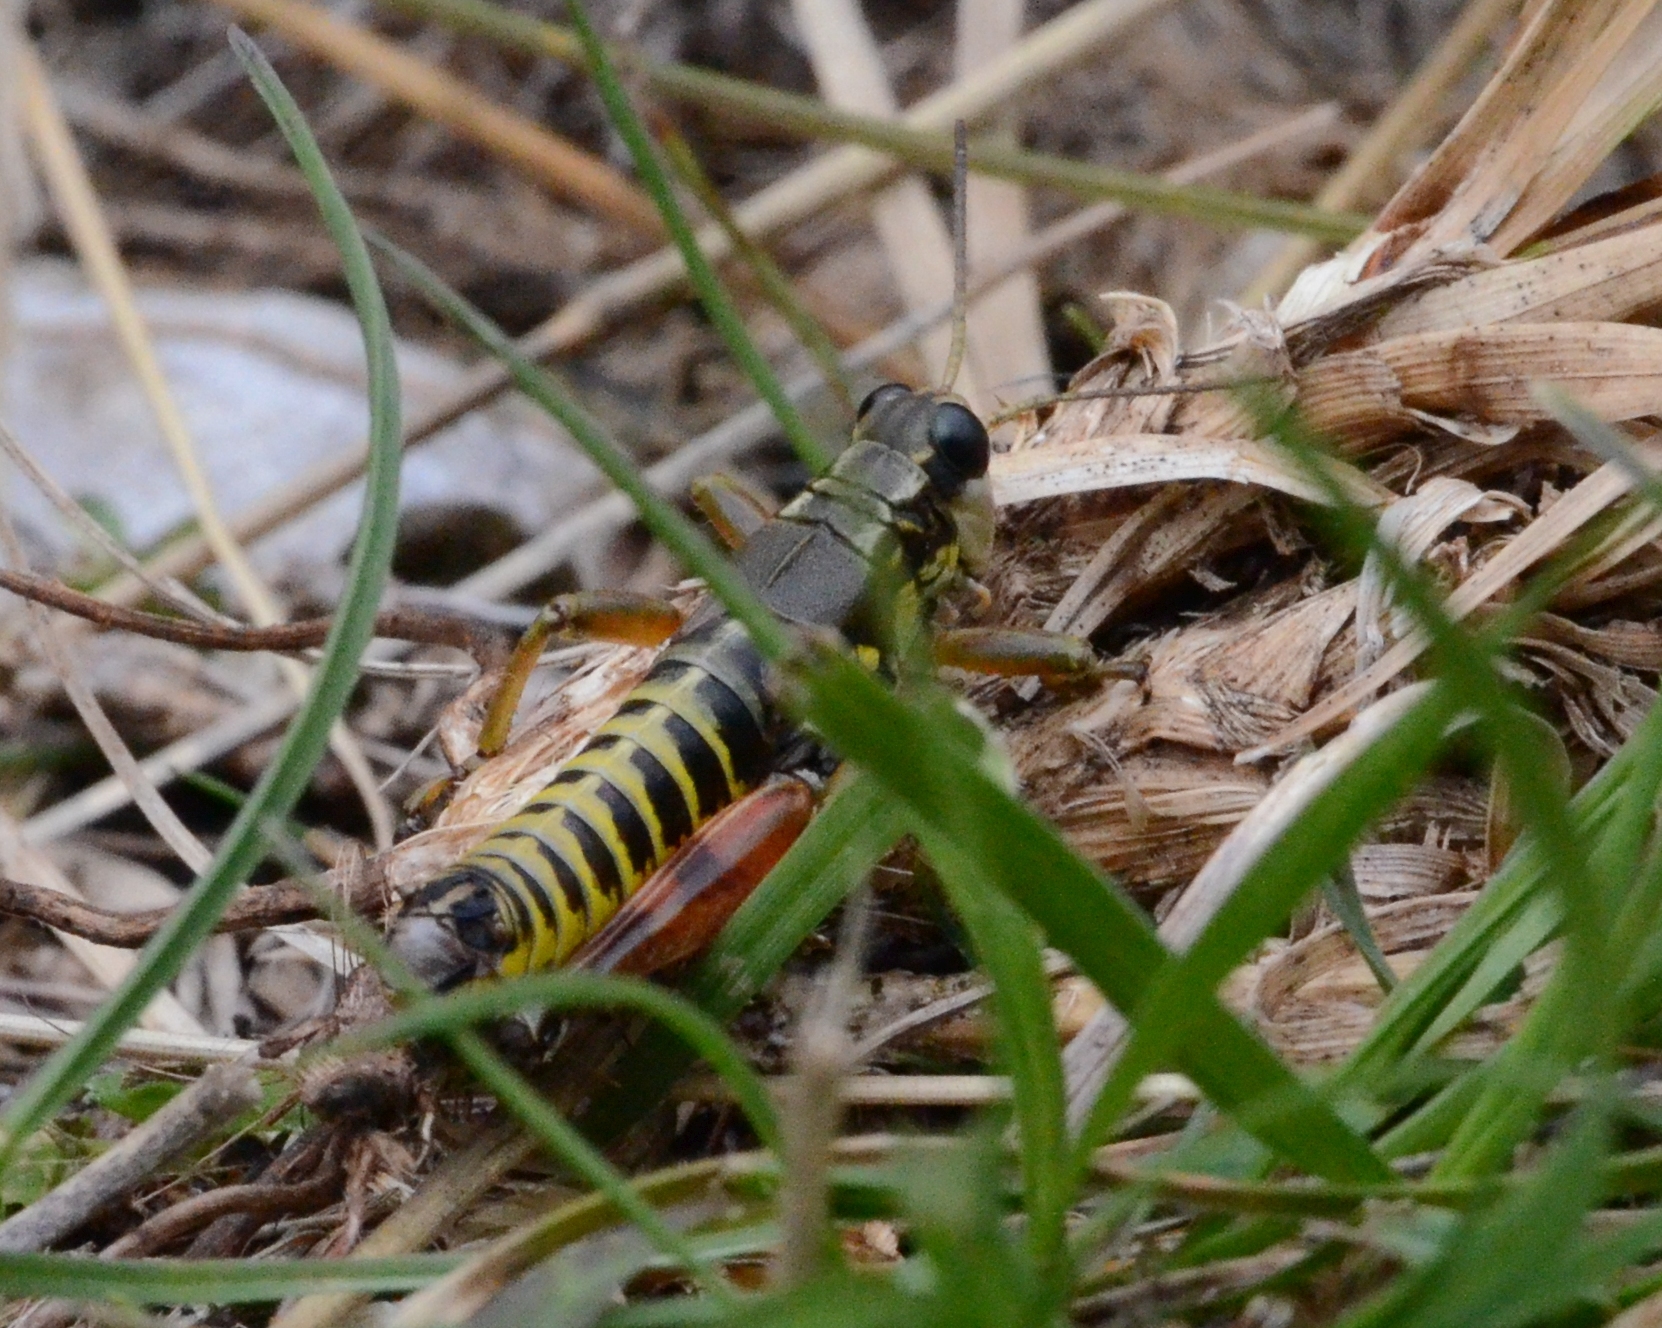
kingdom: Animalia
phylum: Arthropoda
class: Insecta
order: Orthoptera
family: Acrididae
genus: Podisma
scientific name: Podisma pedestris
